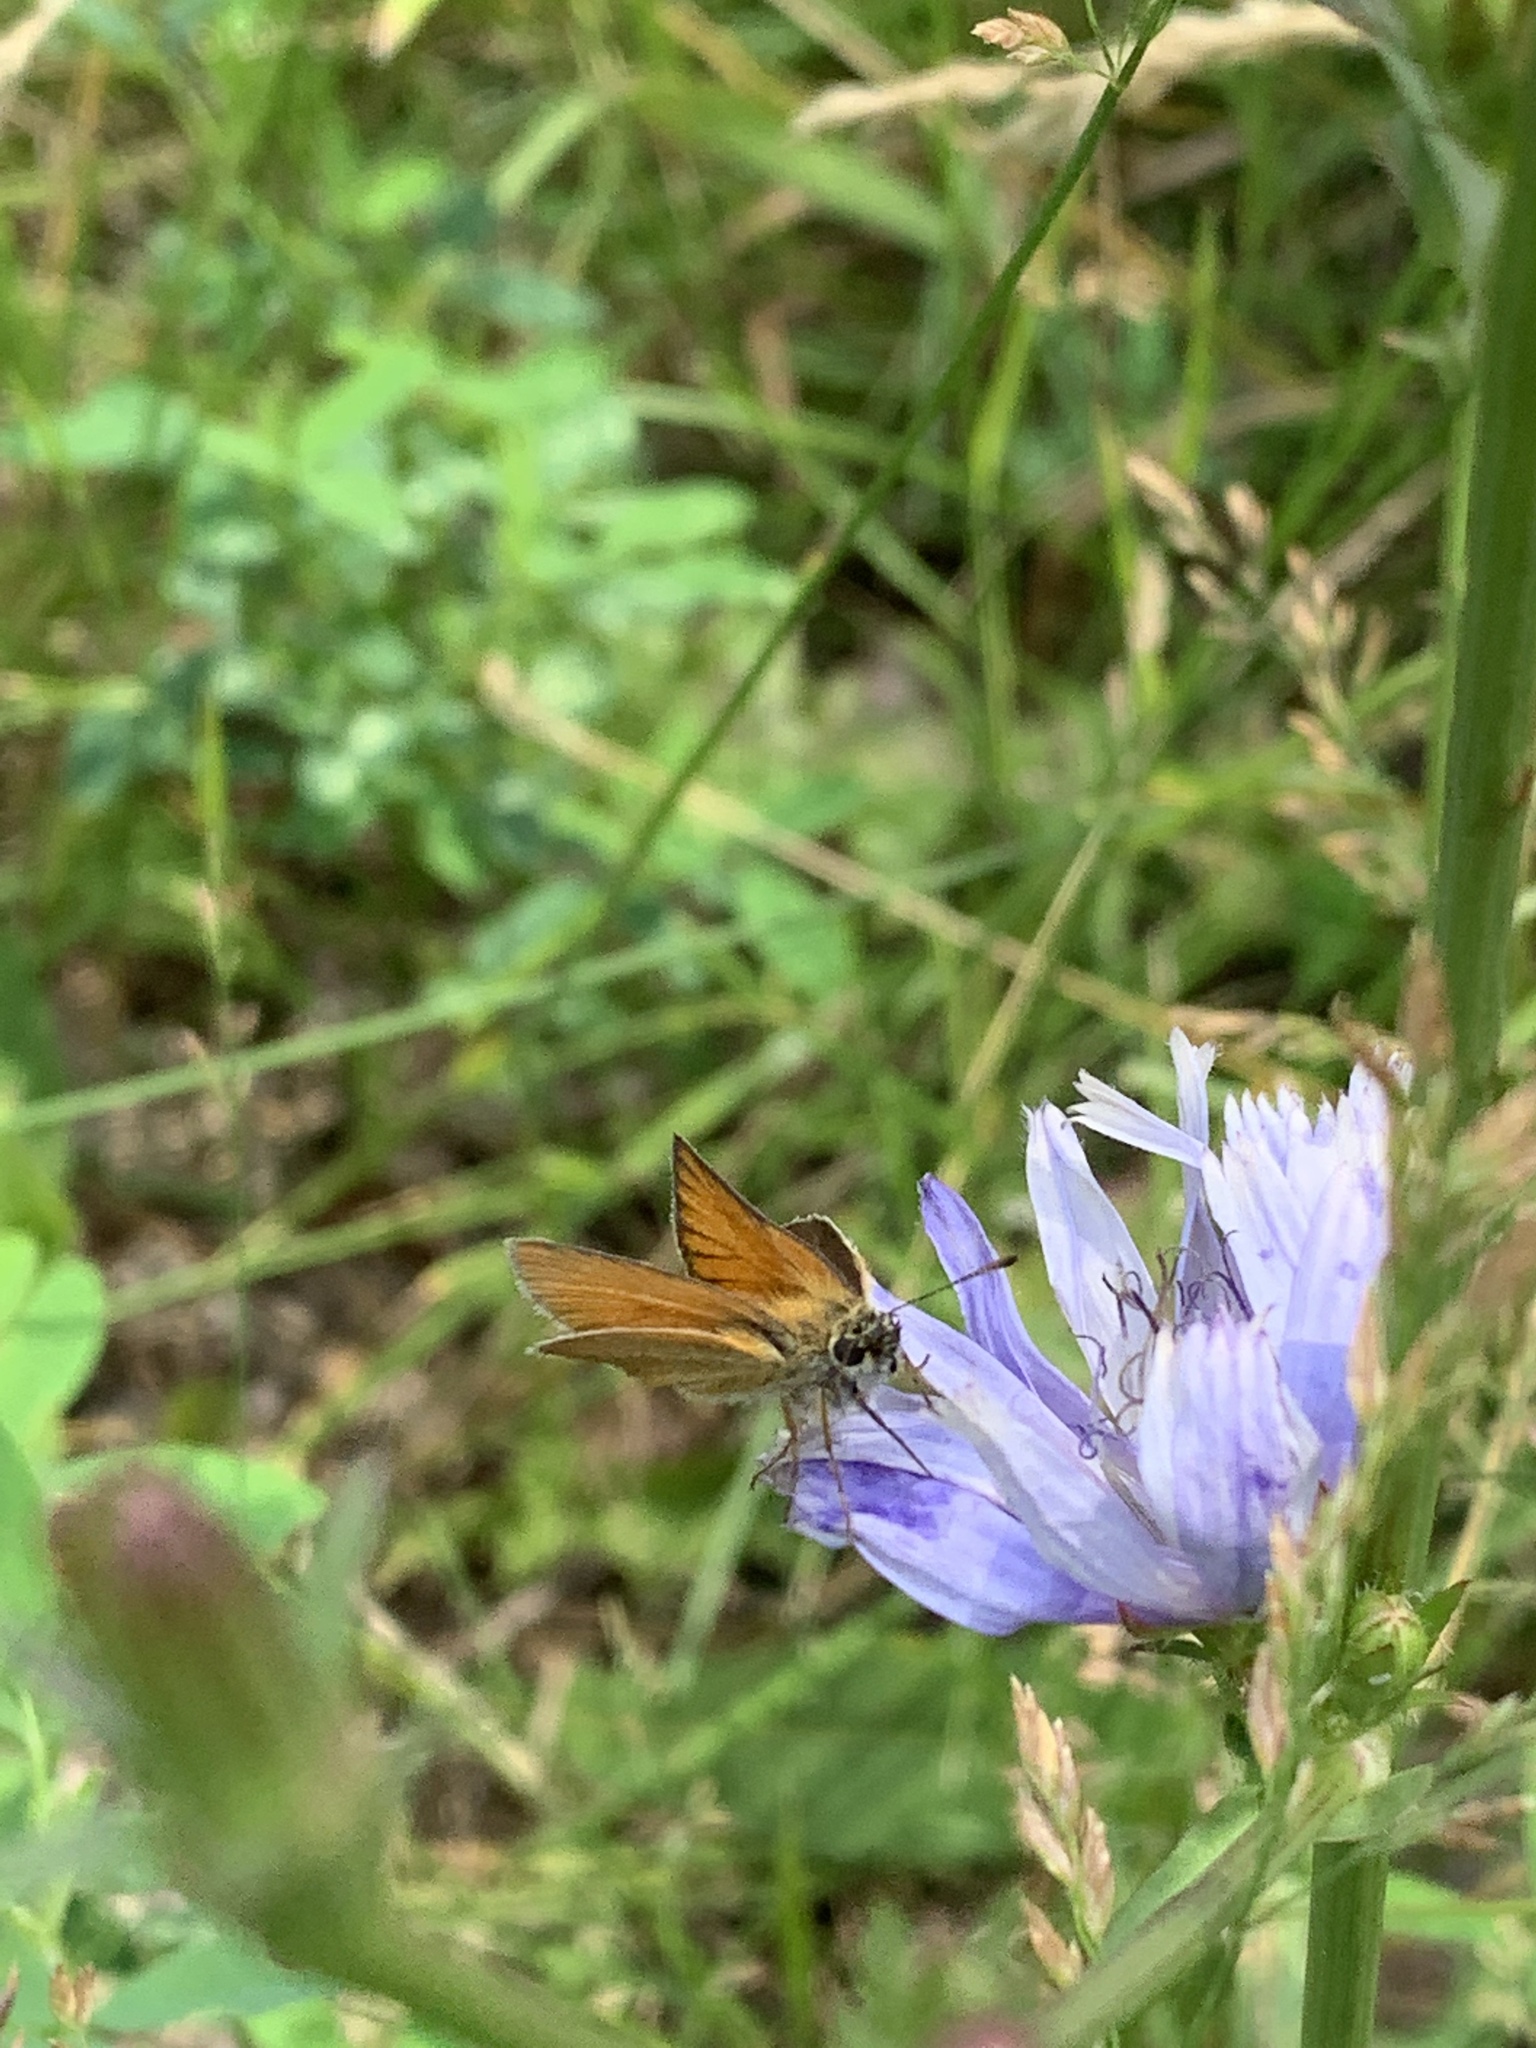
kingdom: Animalia
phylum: Arthropoda
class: Insecta
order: Lepidoptera
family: Hesperiidae
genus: Thymelicus
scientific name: Thymelicus lineola
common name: Essex skipper
